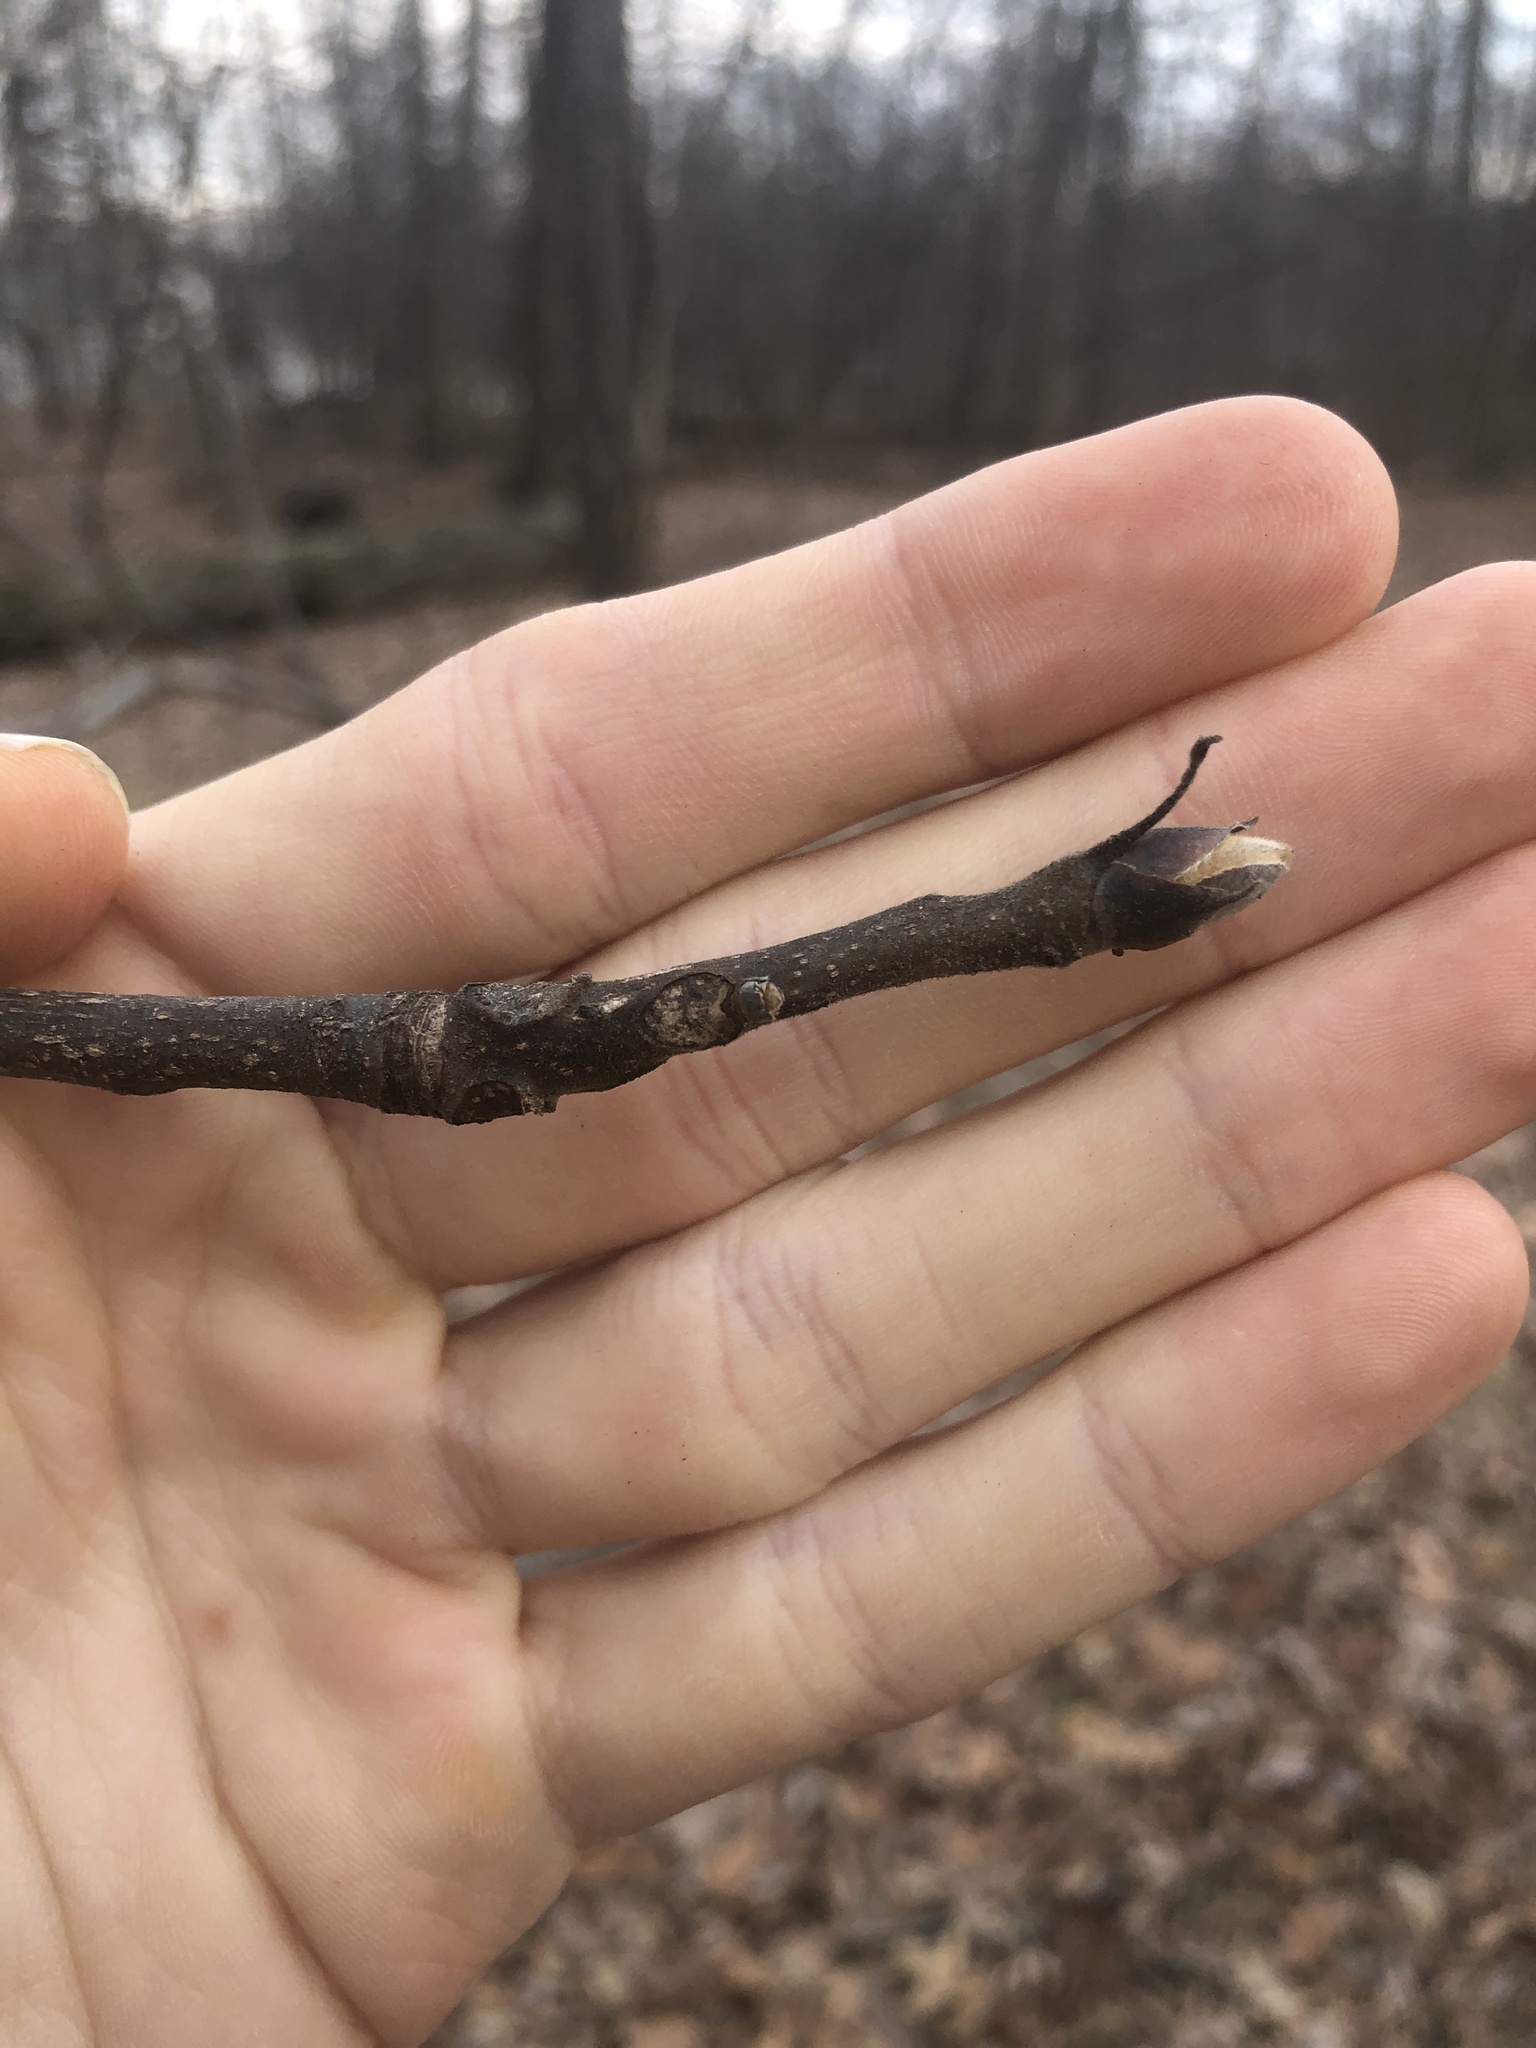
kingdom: Plantae
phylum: Tracheophyta
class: Magnoliopsida
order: Fagales
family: Juglandaceae
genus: Carya
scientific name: Carya alba
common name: Mockernut hickory
